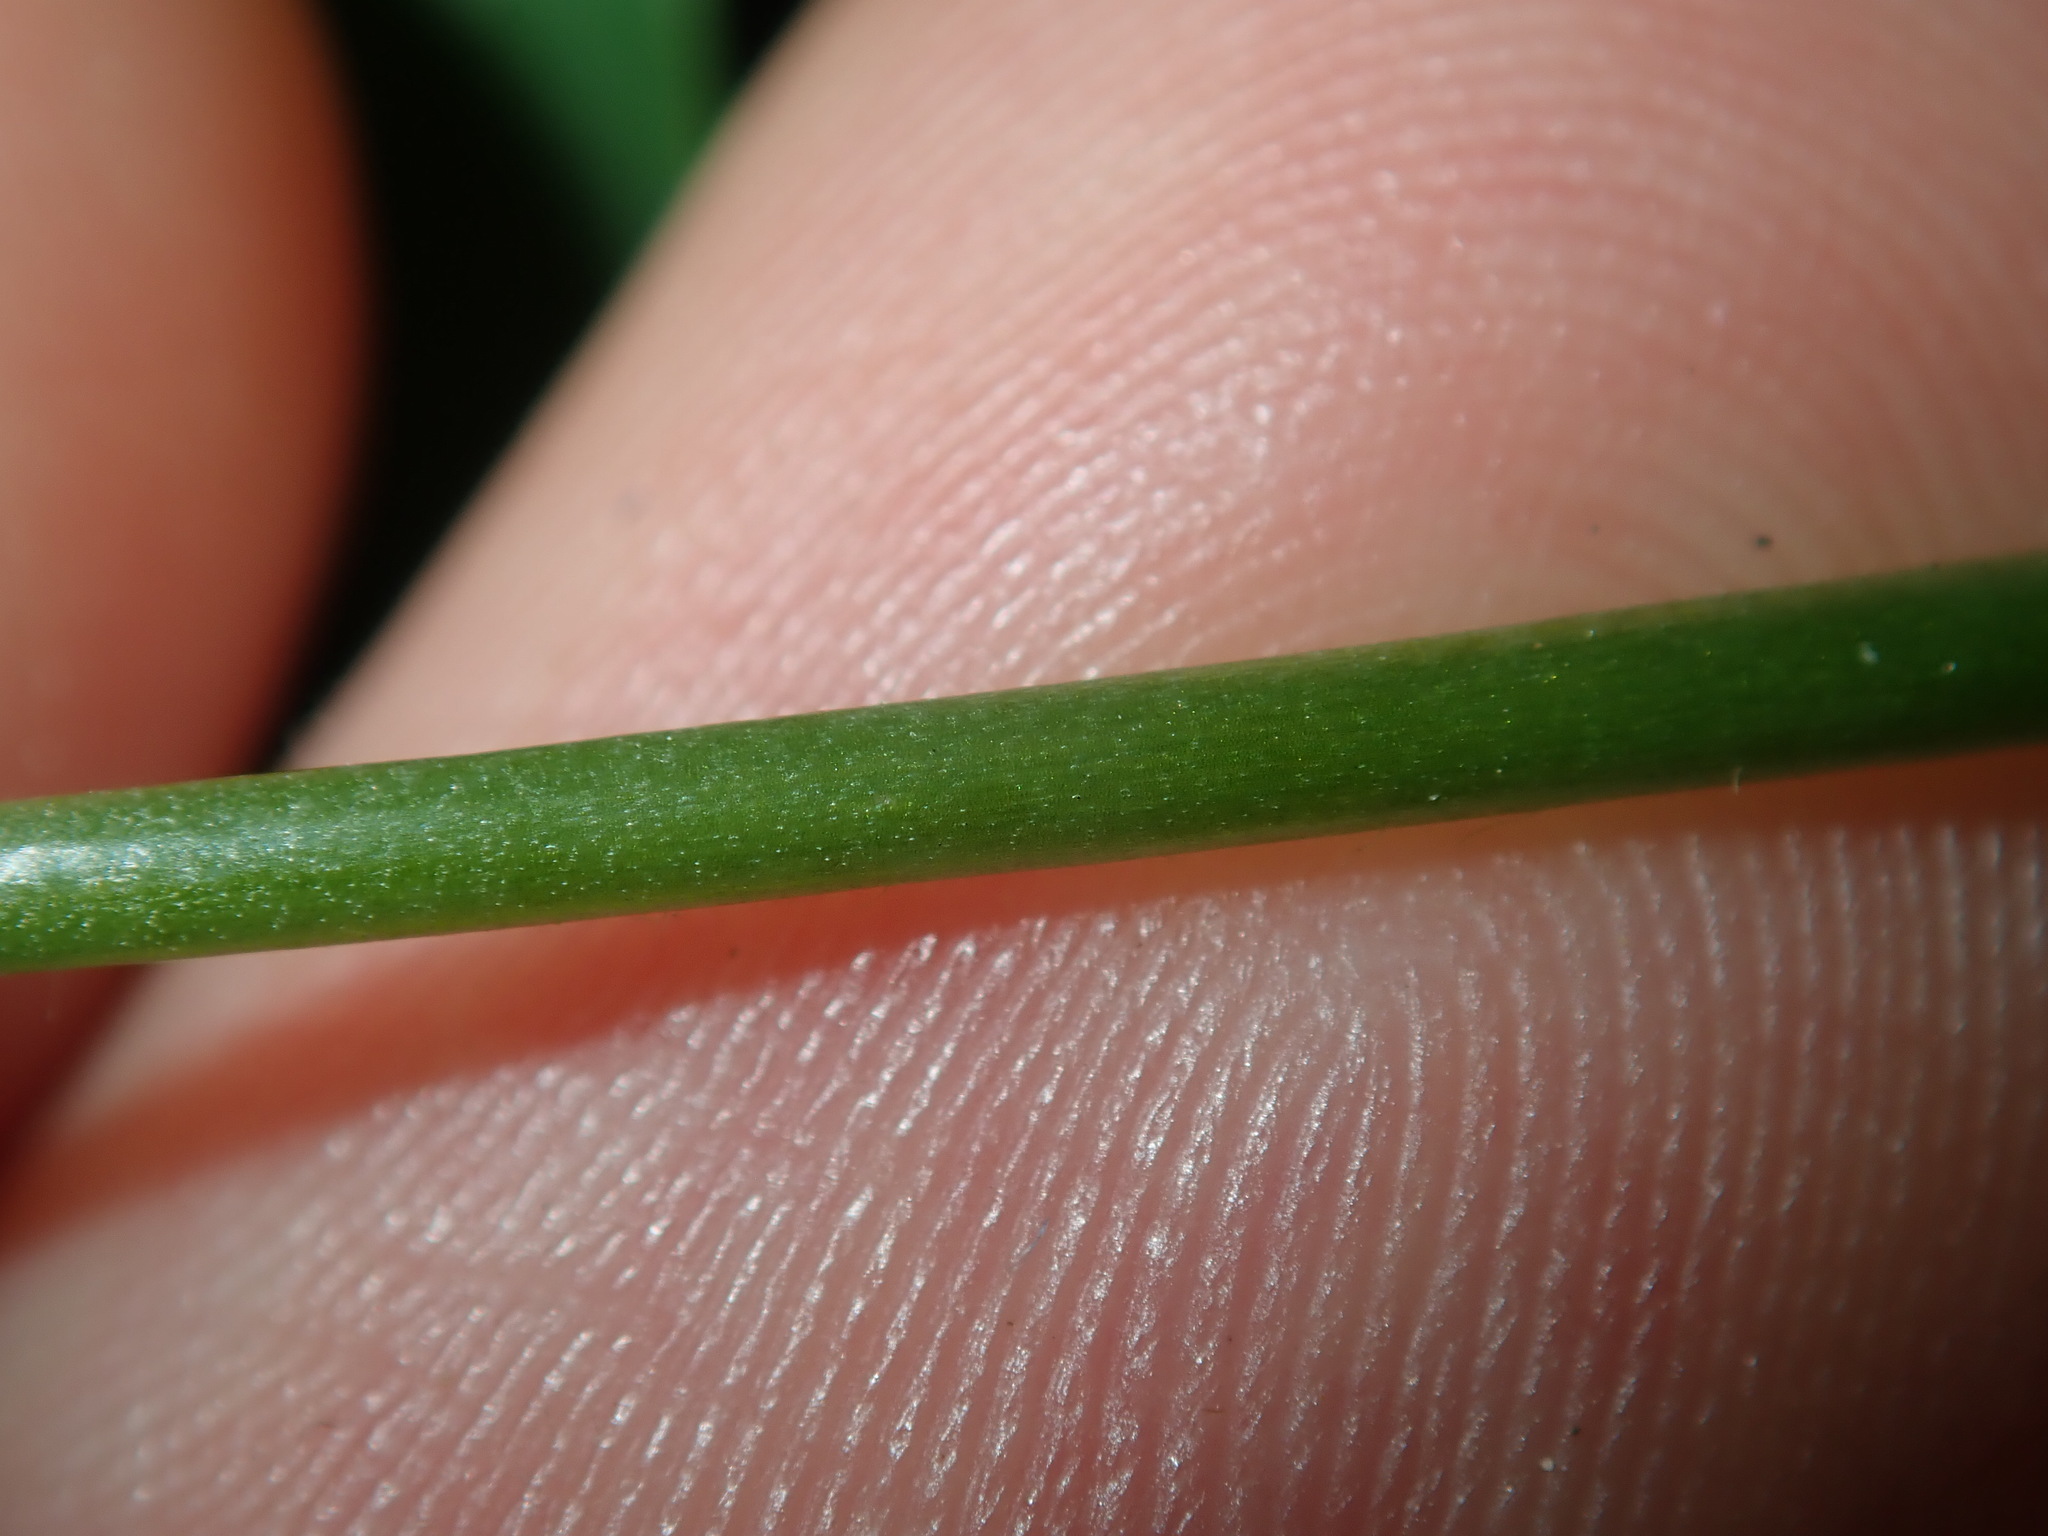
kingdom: Plantae
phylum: Tracheophyta
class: Magnoliopsida
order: Oxalidales
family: Oxalidaceae
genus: Oxalis
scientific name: Oxalis pes-caprae
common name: Bermuda-buttercup
